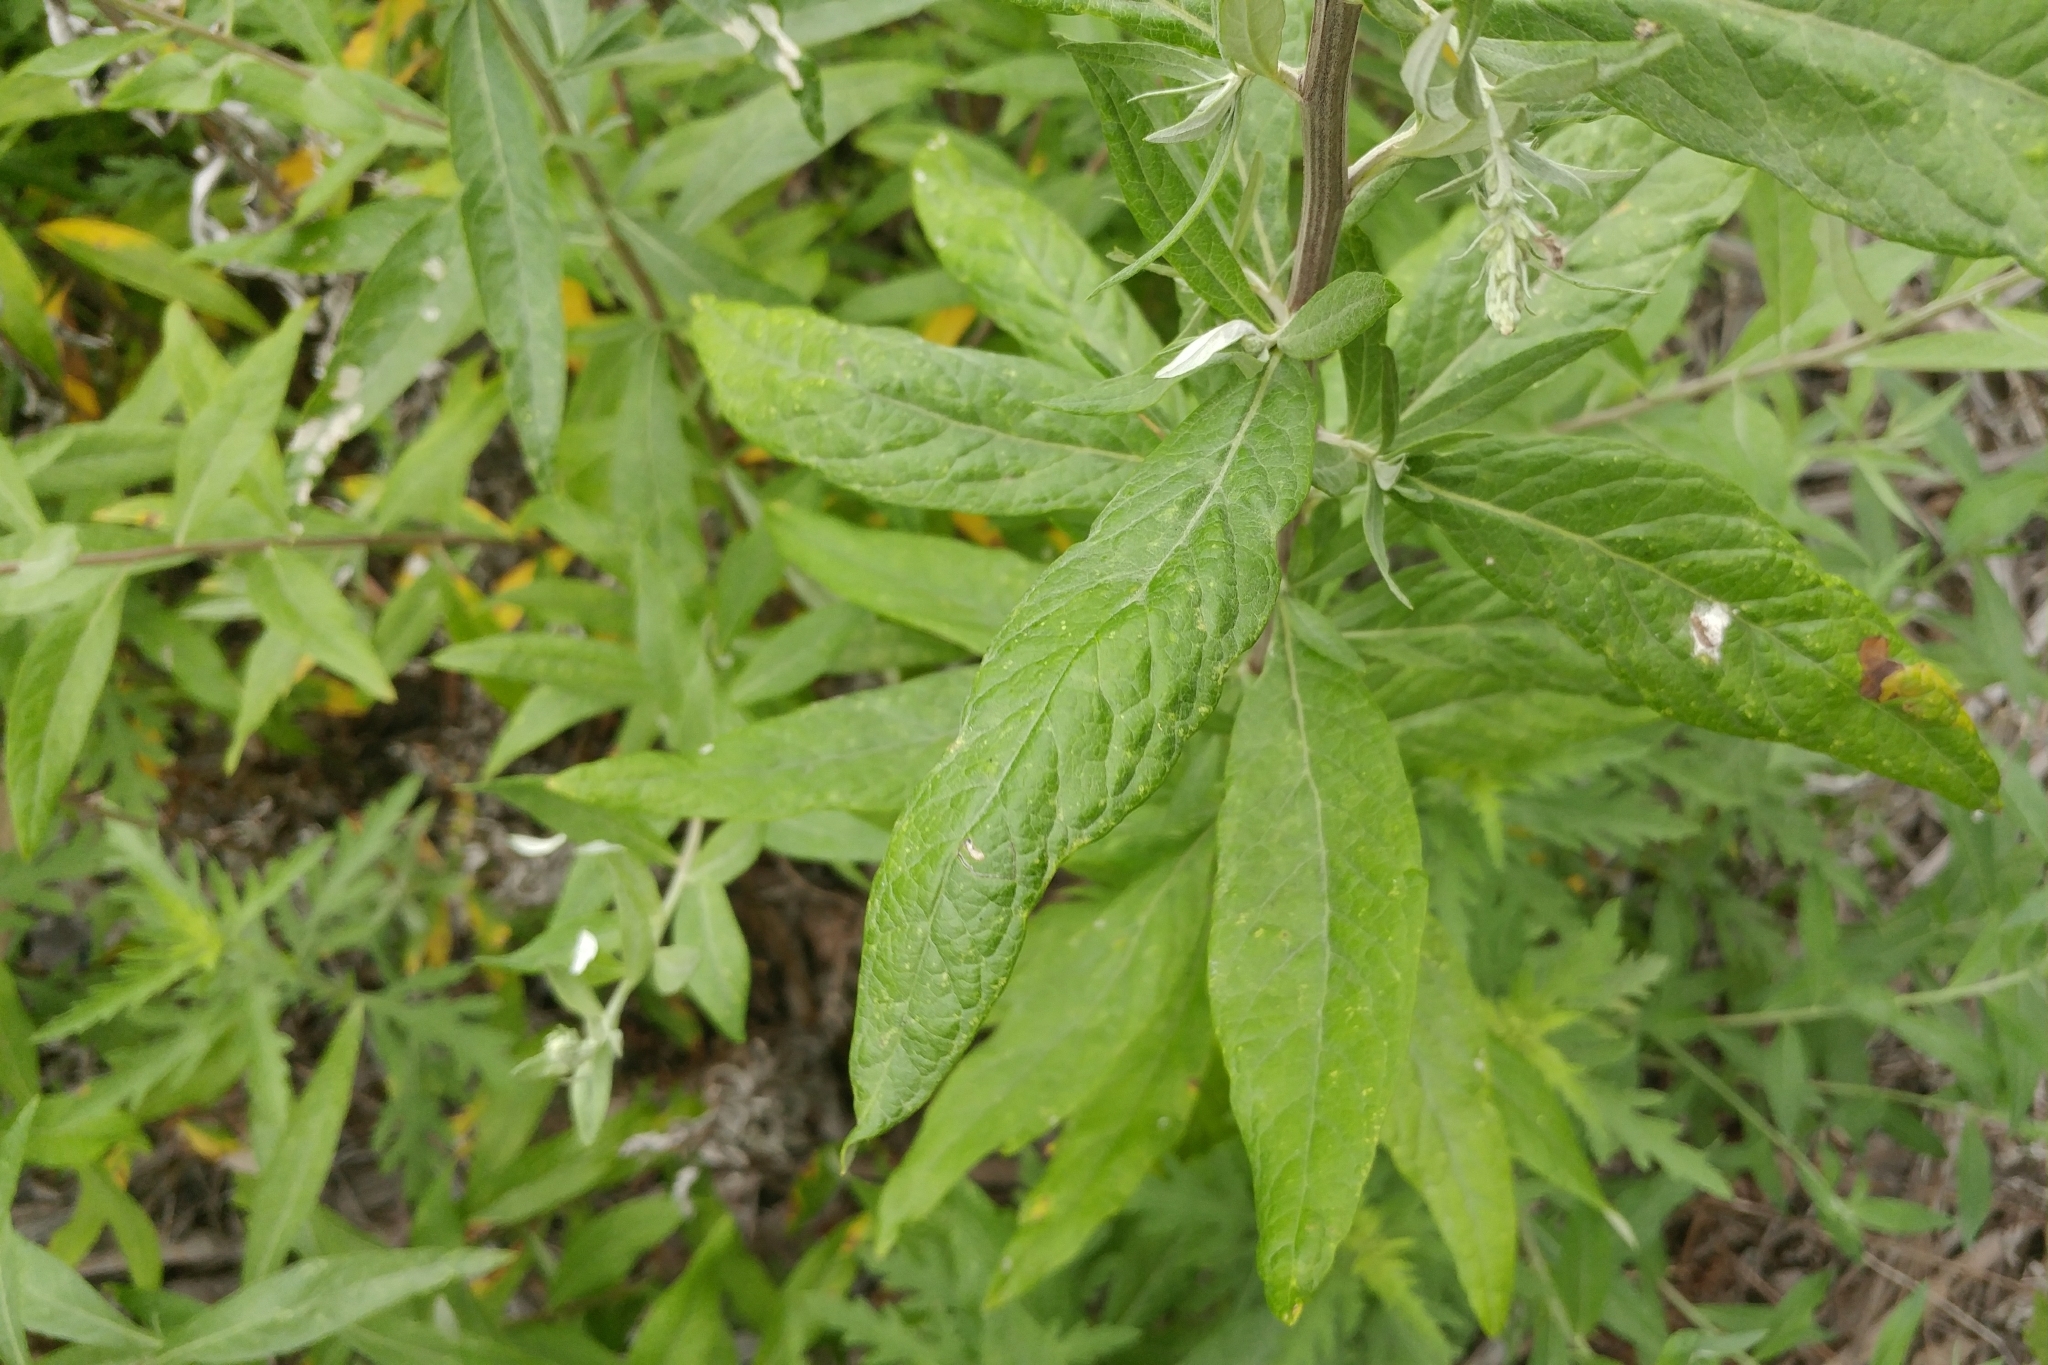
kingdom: Plantae
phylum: Tracheophyta
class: Magnoliopsida
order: Asterales
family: Asteraceae
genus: Artemisia
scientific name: Artemisia douglasiana
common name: Northwest mugwort
